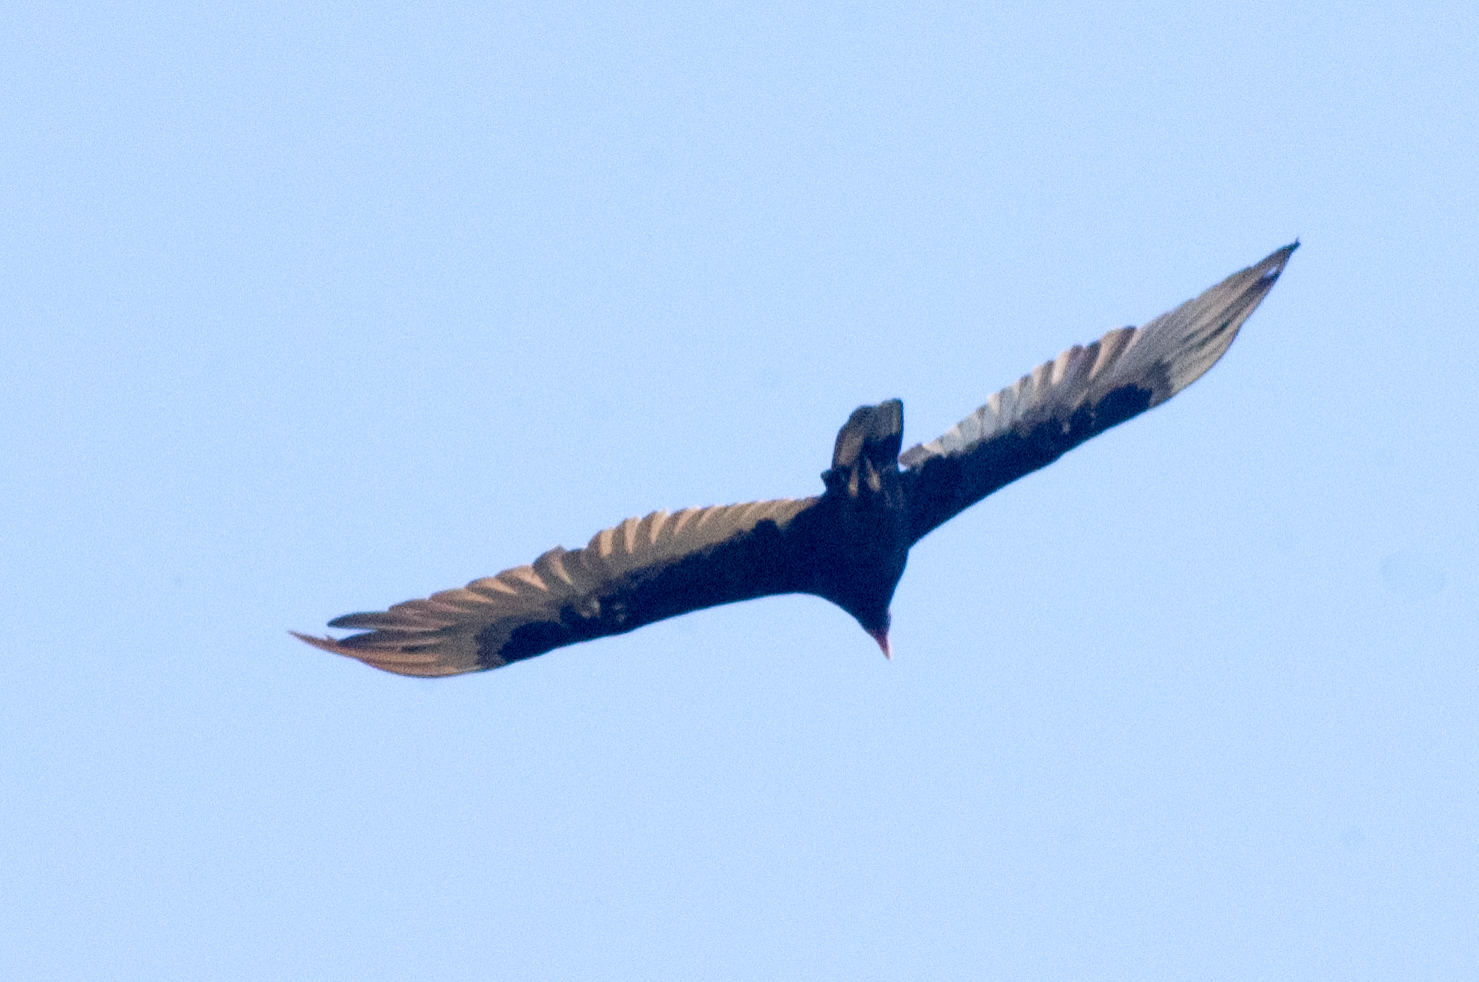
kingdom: Animalia
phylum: Chordata
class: Aves
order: Accipitriformes
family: Cathartidae
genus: Cathartes
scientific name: Cathartes aura
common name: Turkey vulture
